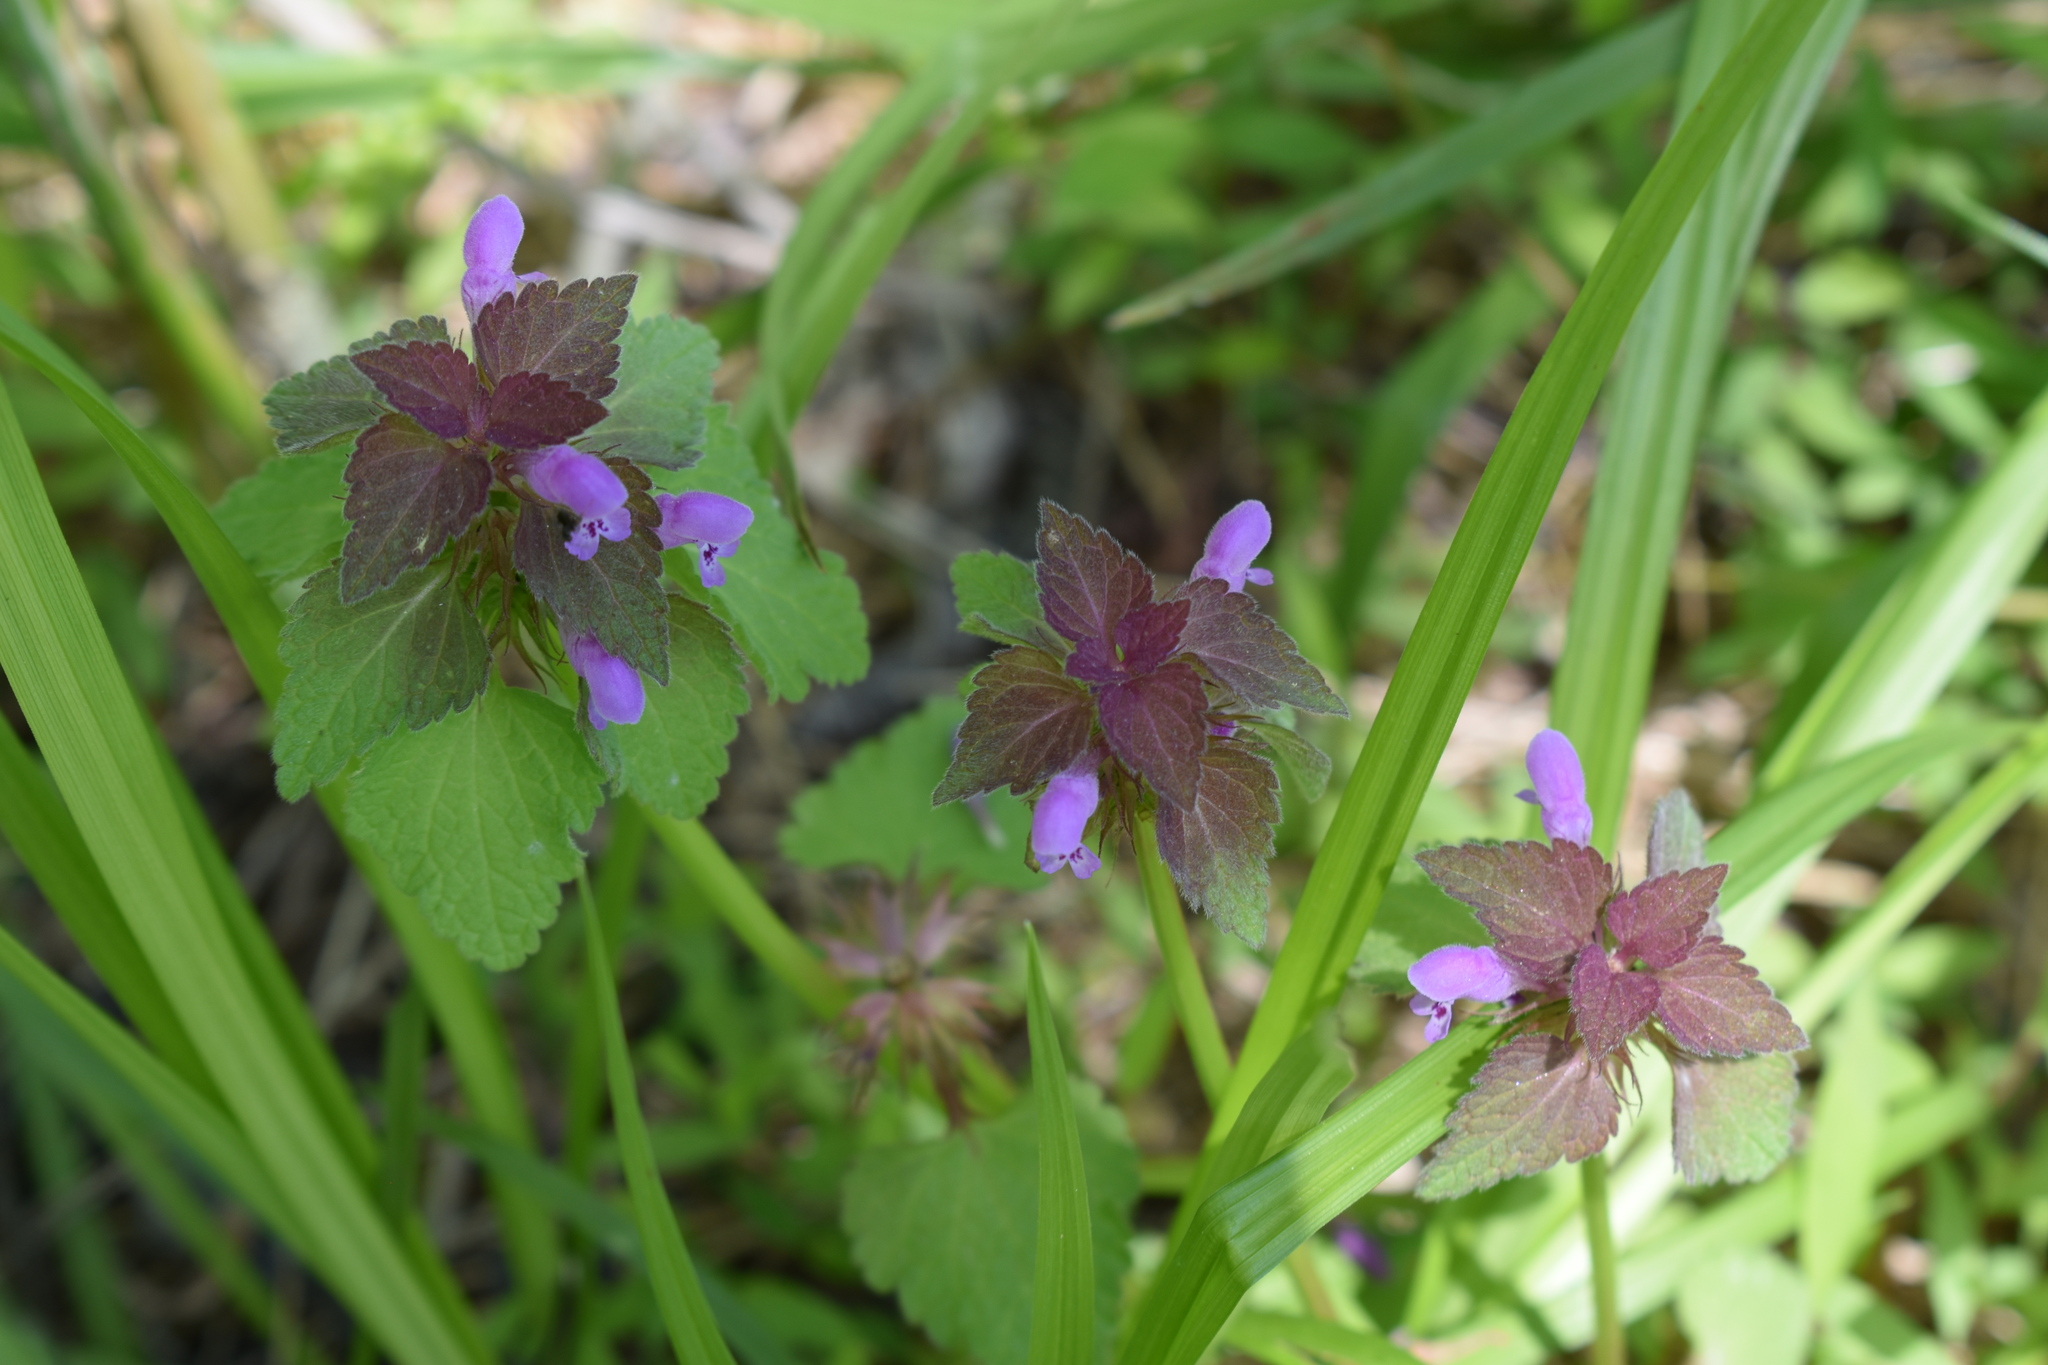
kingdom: Plantae
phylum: Tracheophyta
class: Magnoliopsida
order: Lamiales
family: Lamiaceae
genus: Lamium
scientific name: Lamium purpureum
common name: Red dead-nettle
